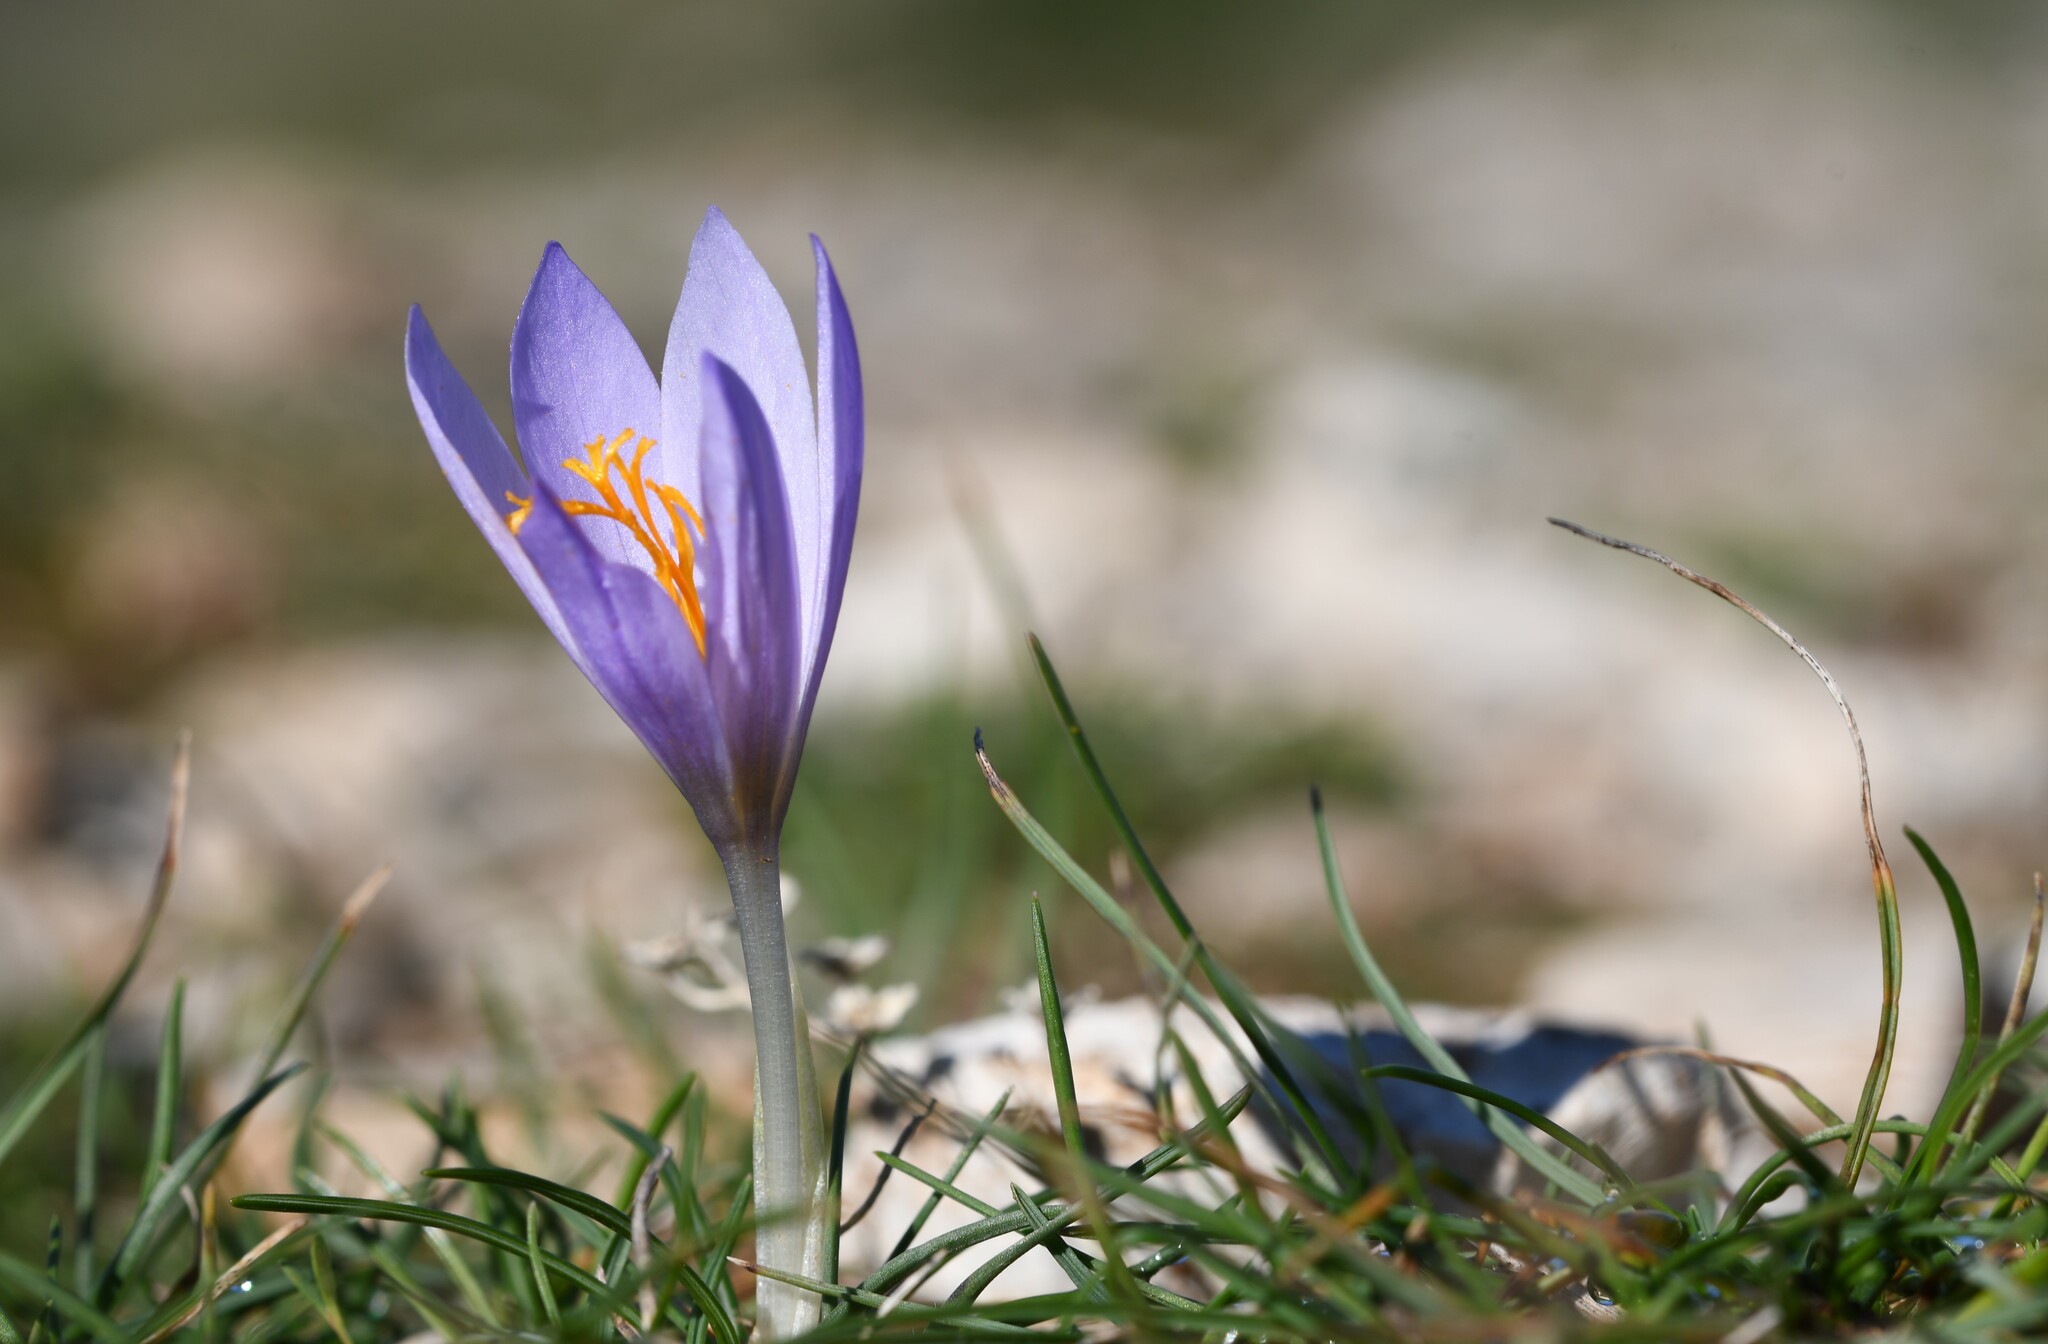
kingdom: Plantae
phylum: Tracheophyta
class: Liliopsida
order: Asparagales
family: Iridaceae
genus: Crocus
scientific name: Crocus serotinus
